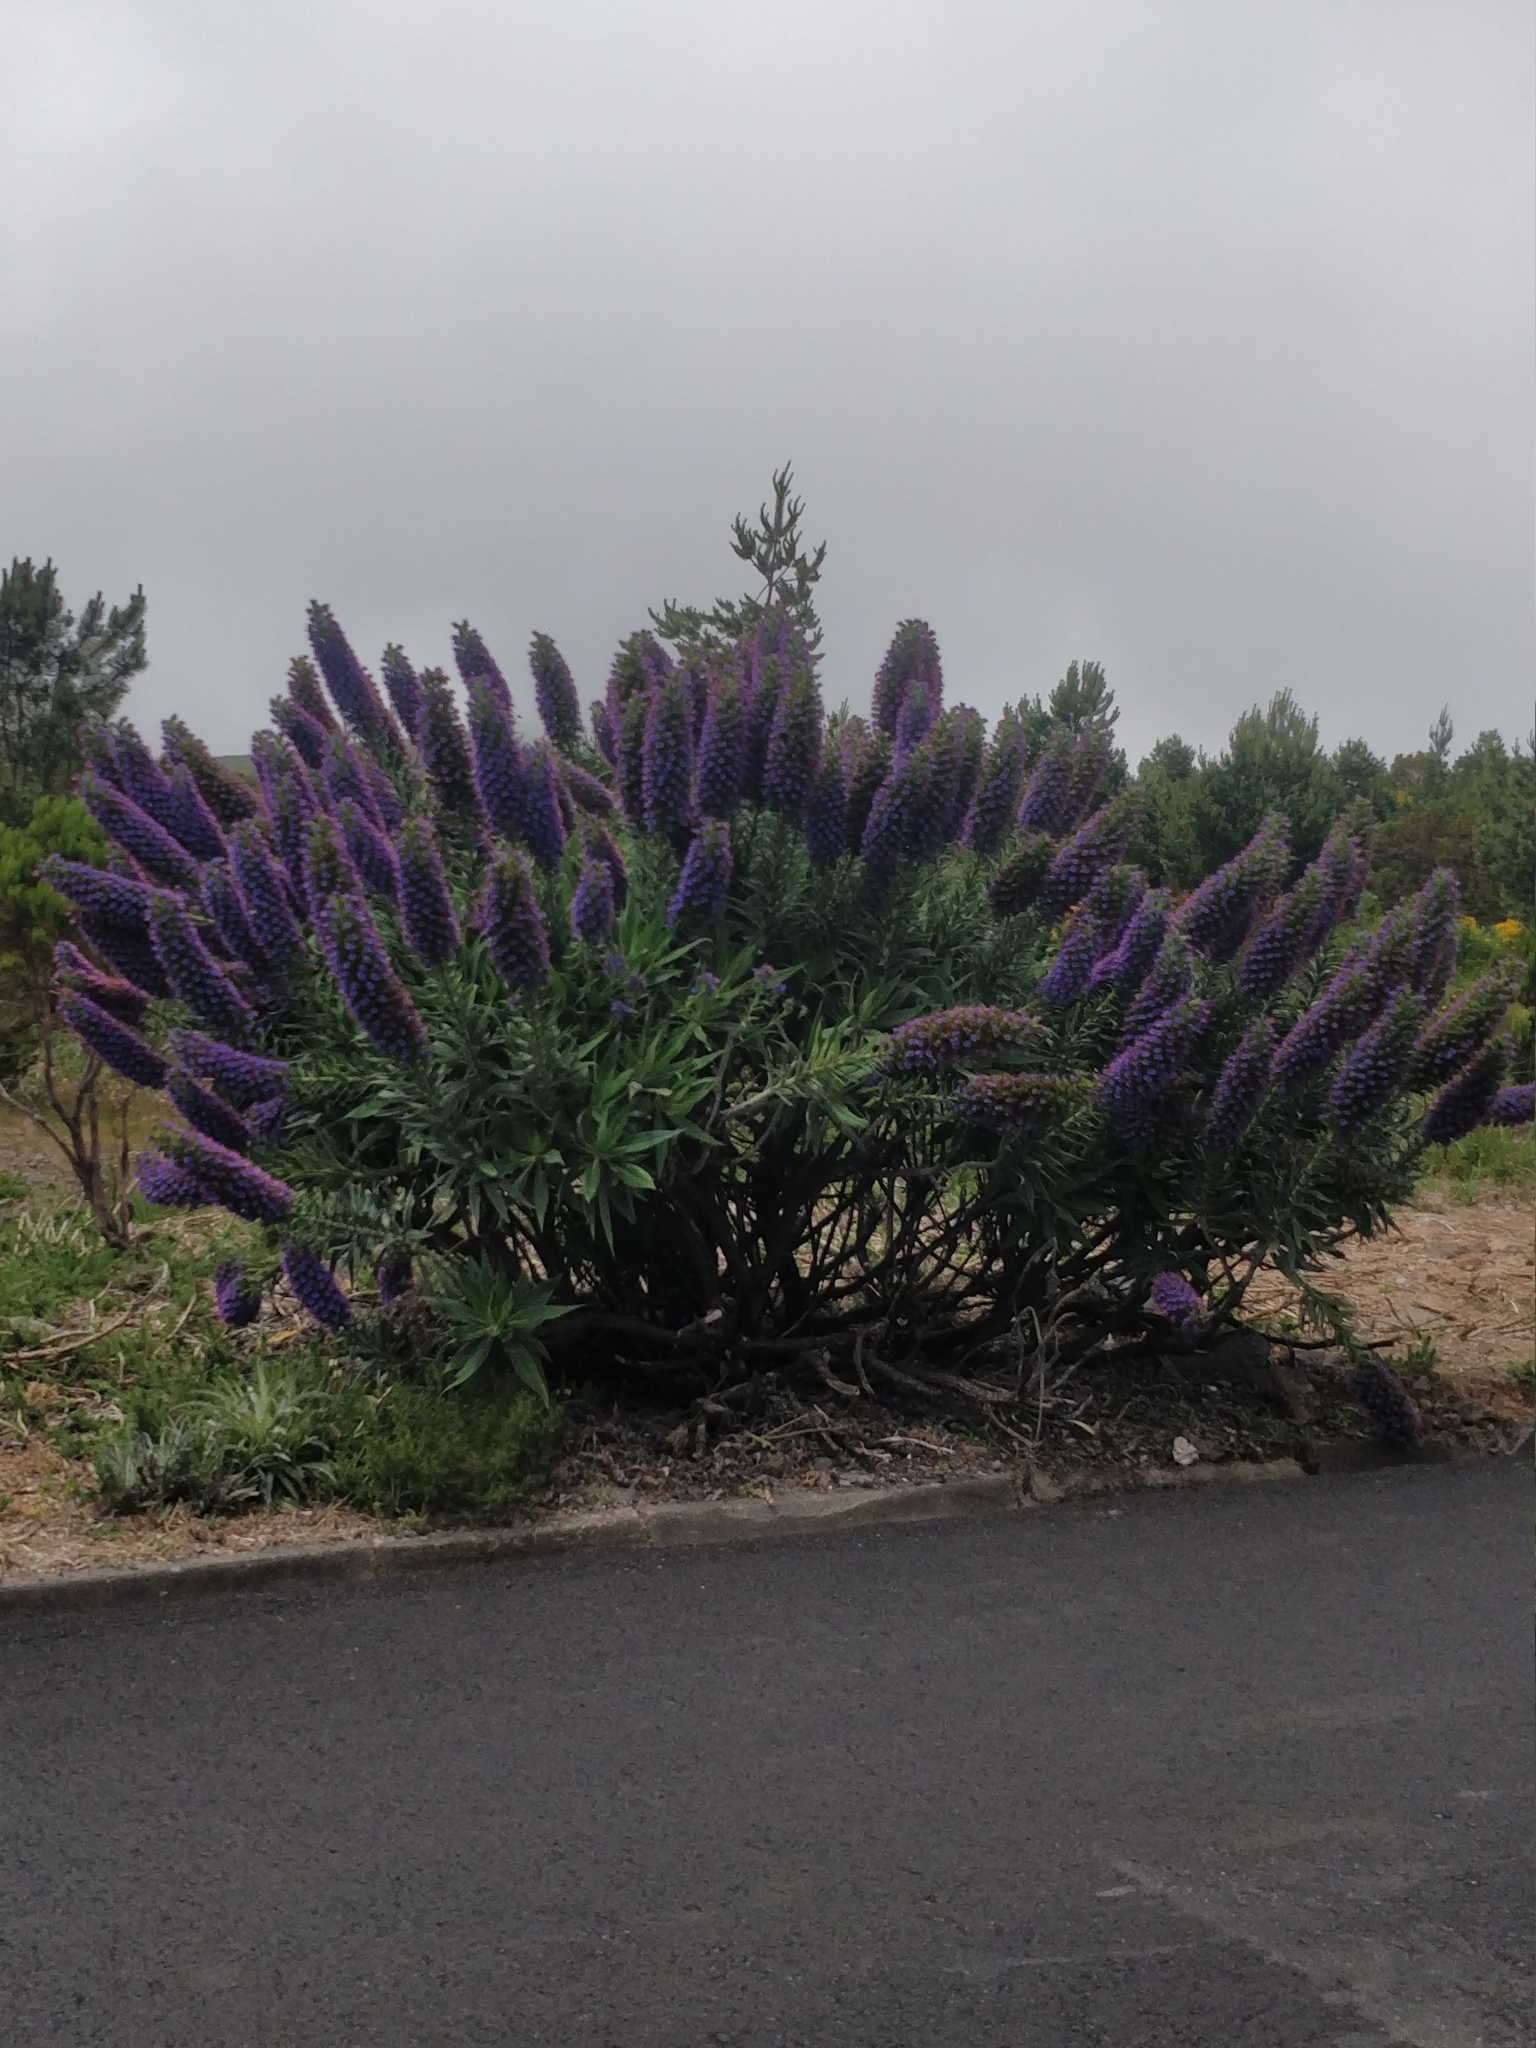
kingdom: Plantae
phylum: Tracheophyta
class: Magnoliopsida
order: Boraginales
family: Boraginaceae
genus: Echium
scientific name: Echium candicans
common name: Pride of madeira
